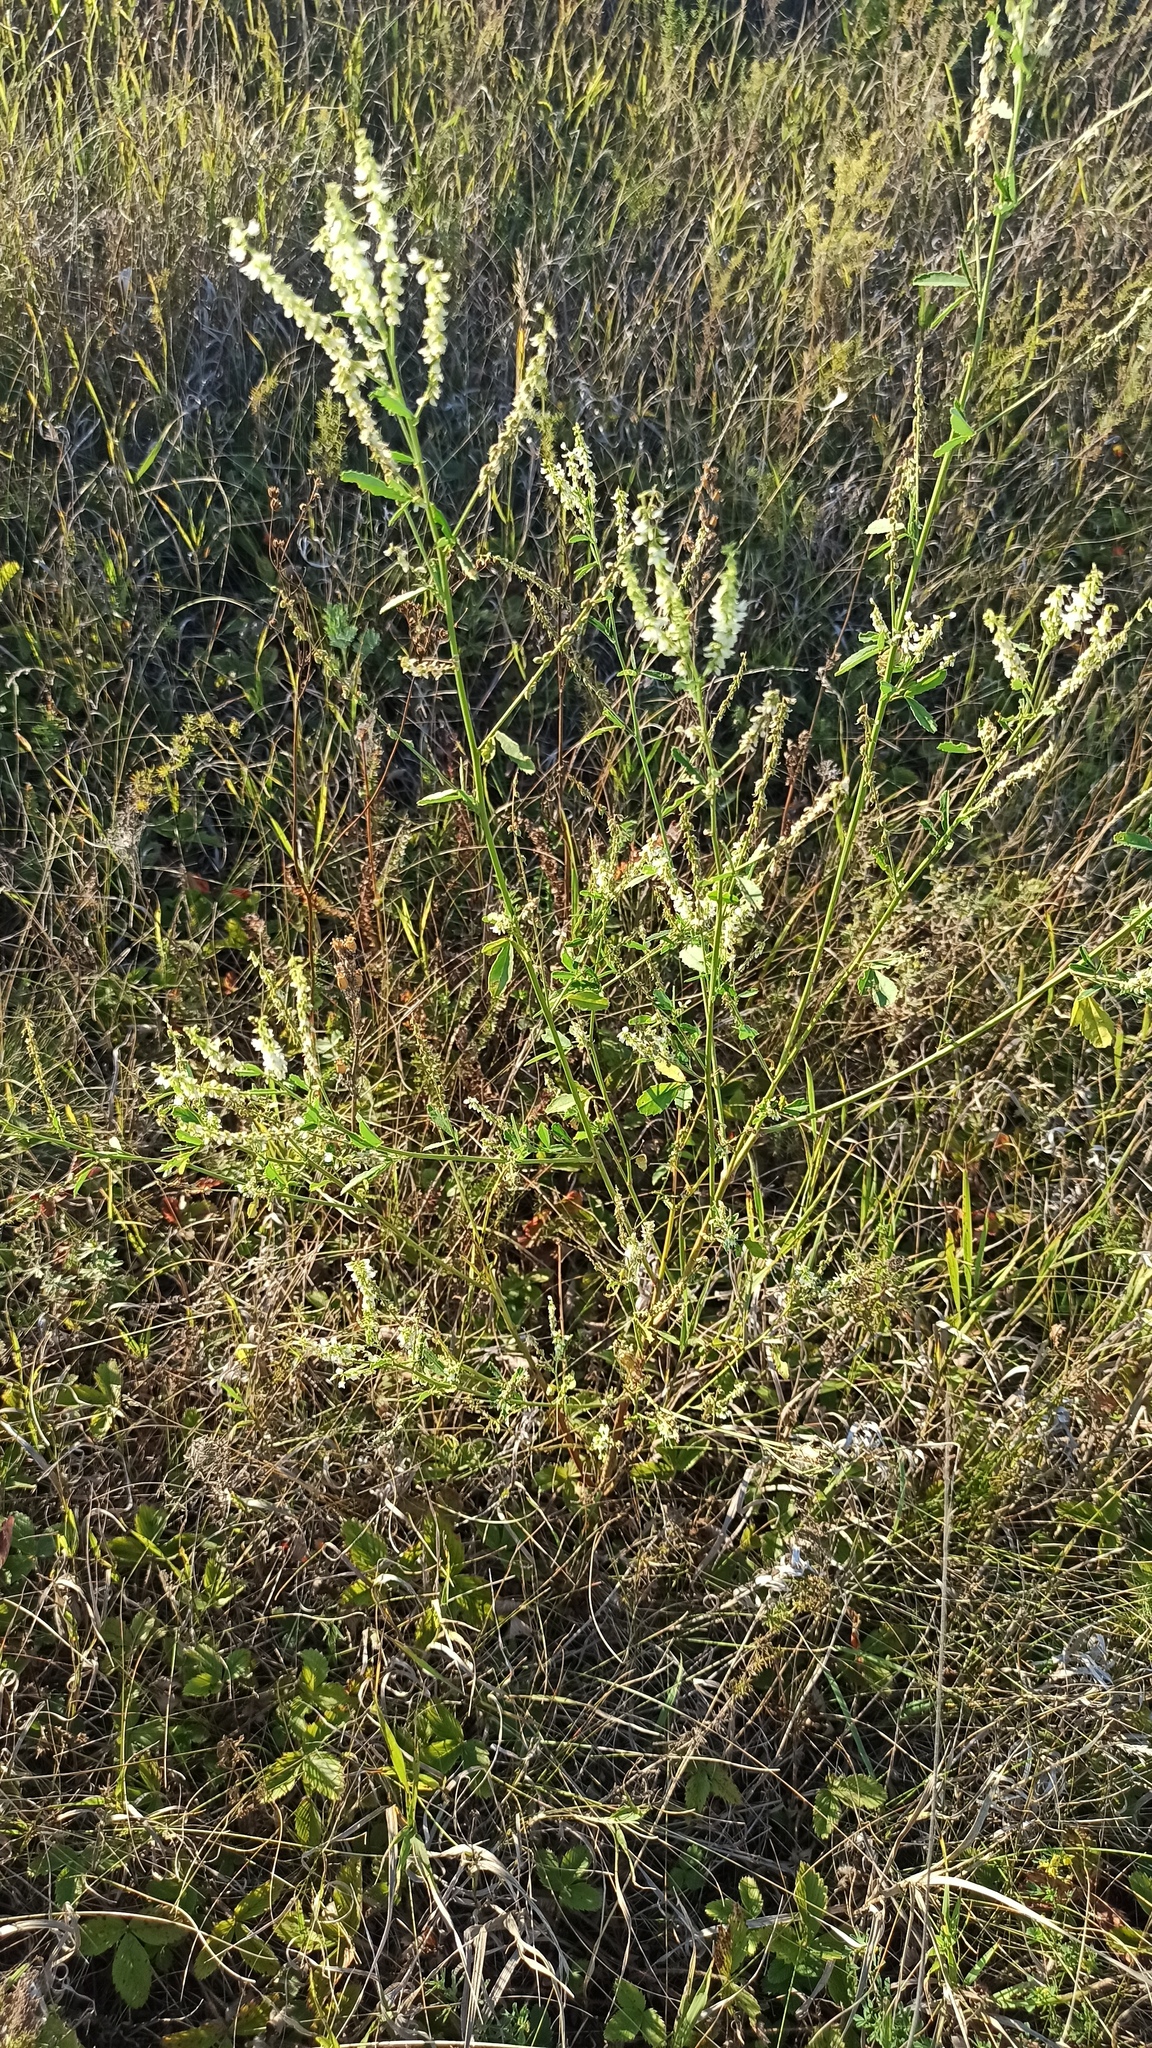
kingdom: Plantae
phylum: Tracheophyta
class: Magnoliopsida
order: Fabales
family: Fabaceae
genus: Melilotus
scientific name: Melilotus albus
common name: White melilot
